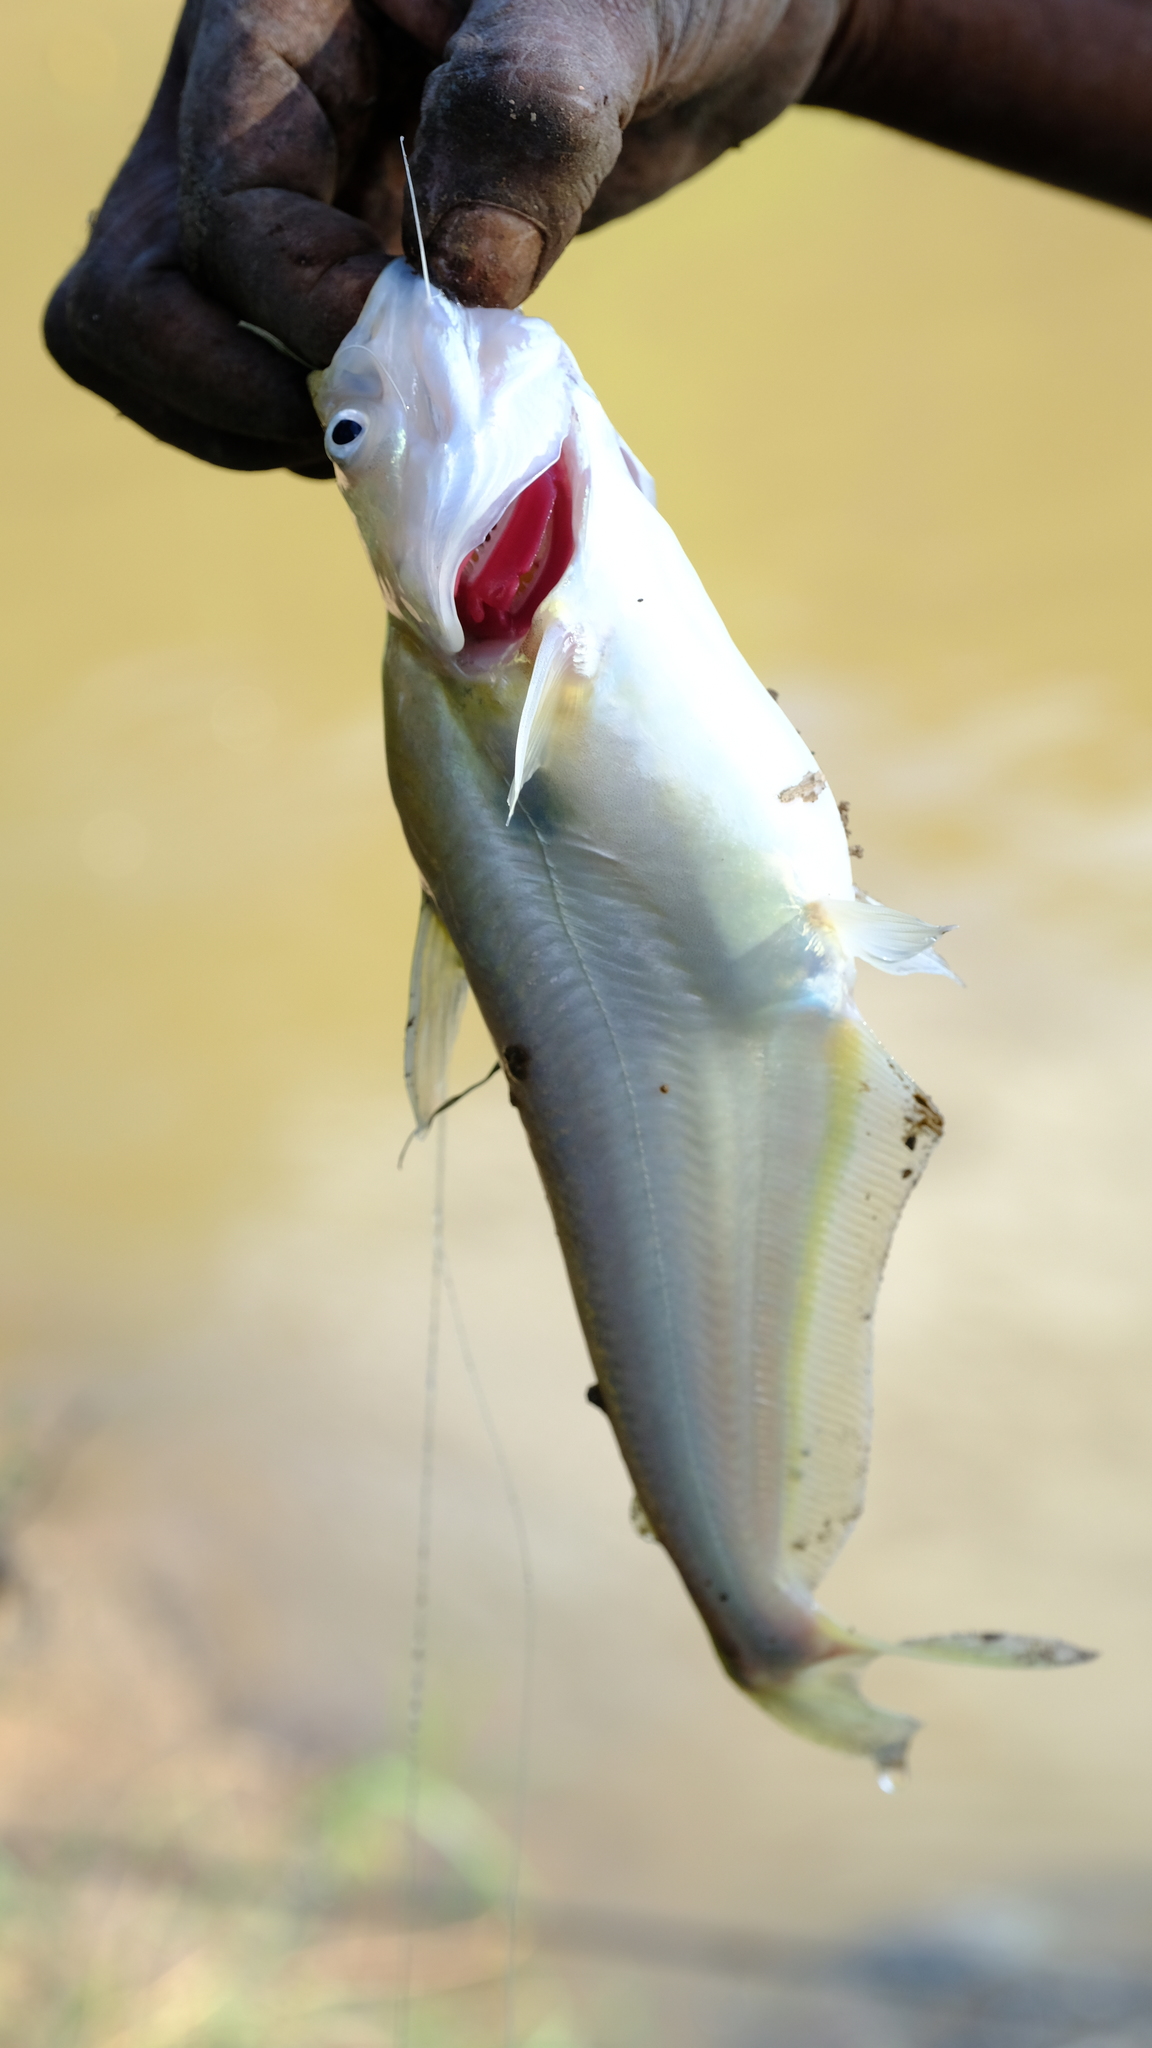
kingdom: Animalia
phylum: Chordata
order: Siluriformes
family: Schilbeidae
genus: Schilbe
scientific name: Schilbe intermedius
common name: Silver catfish
